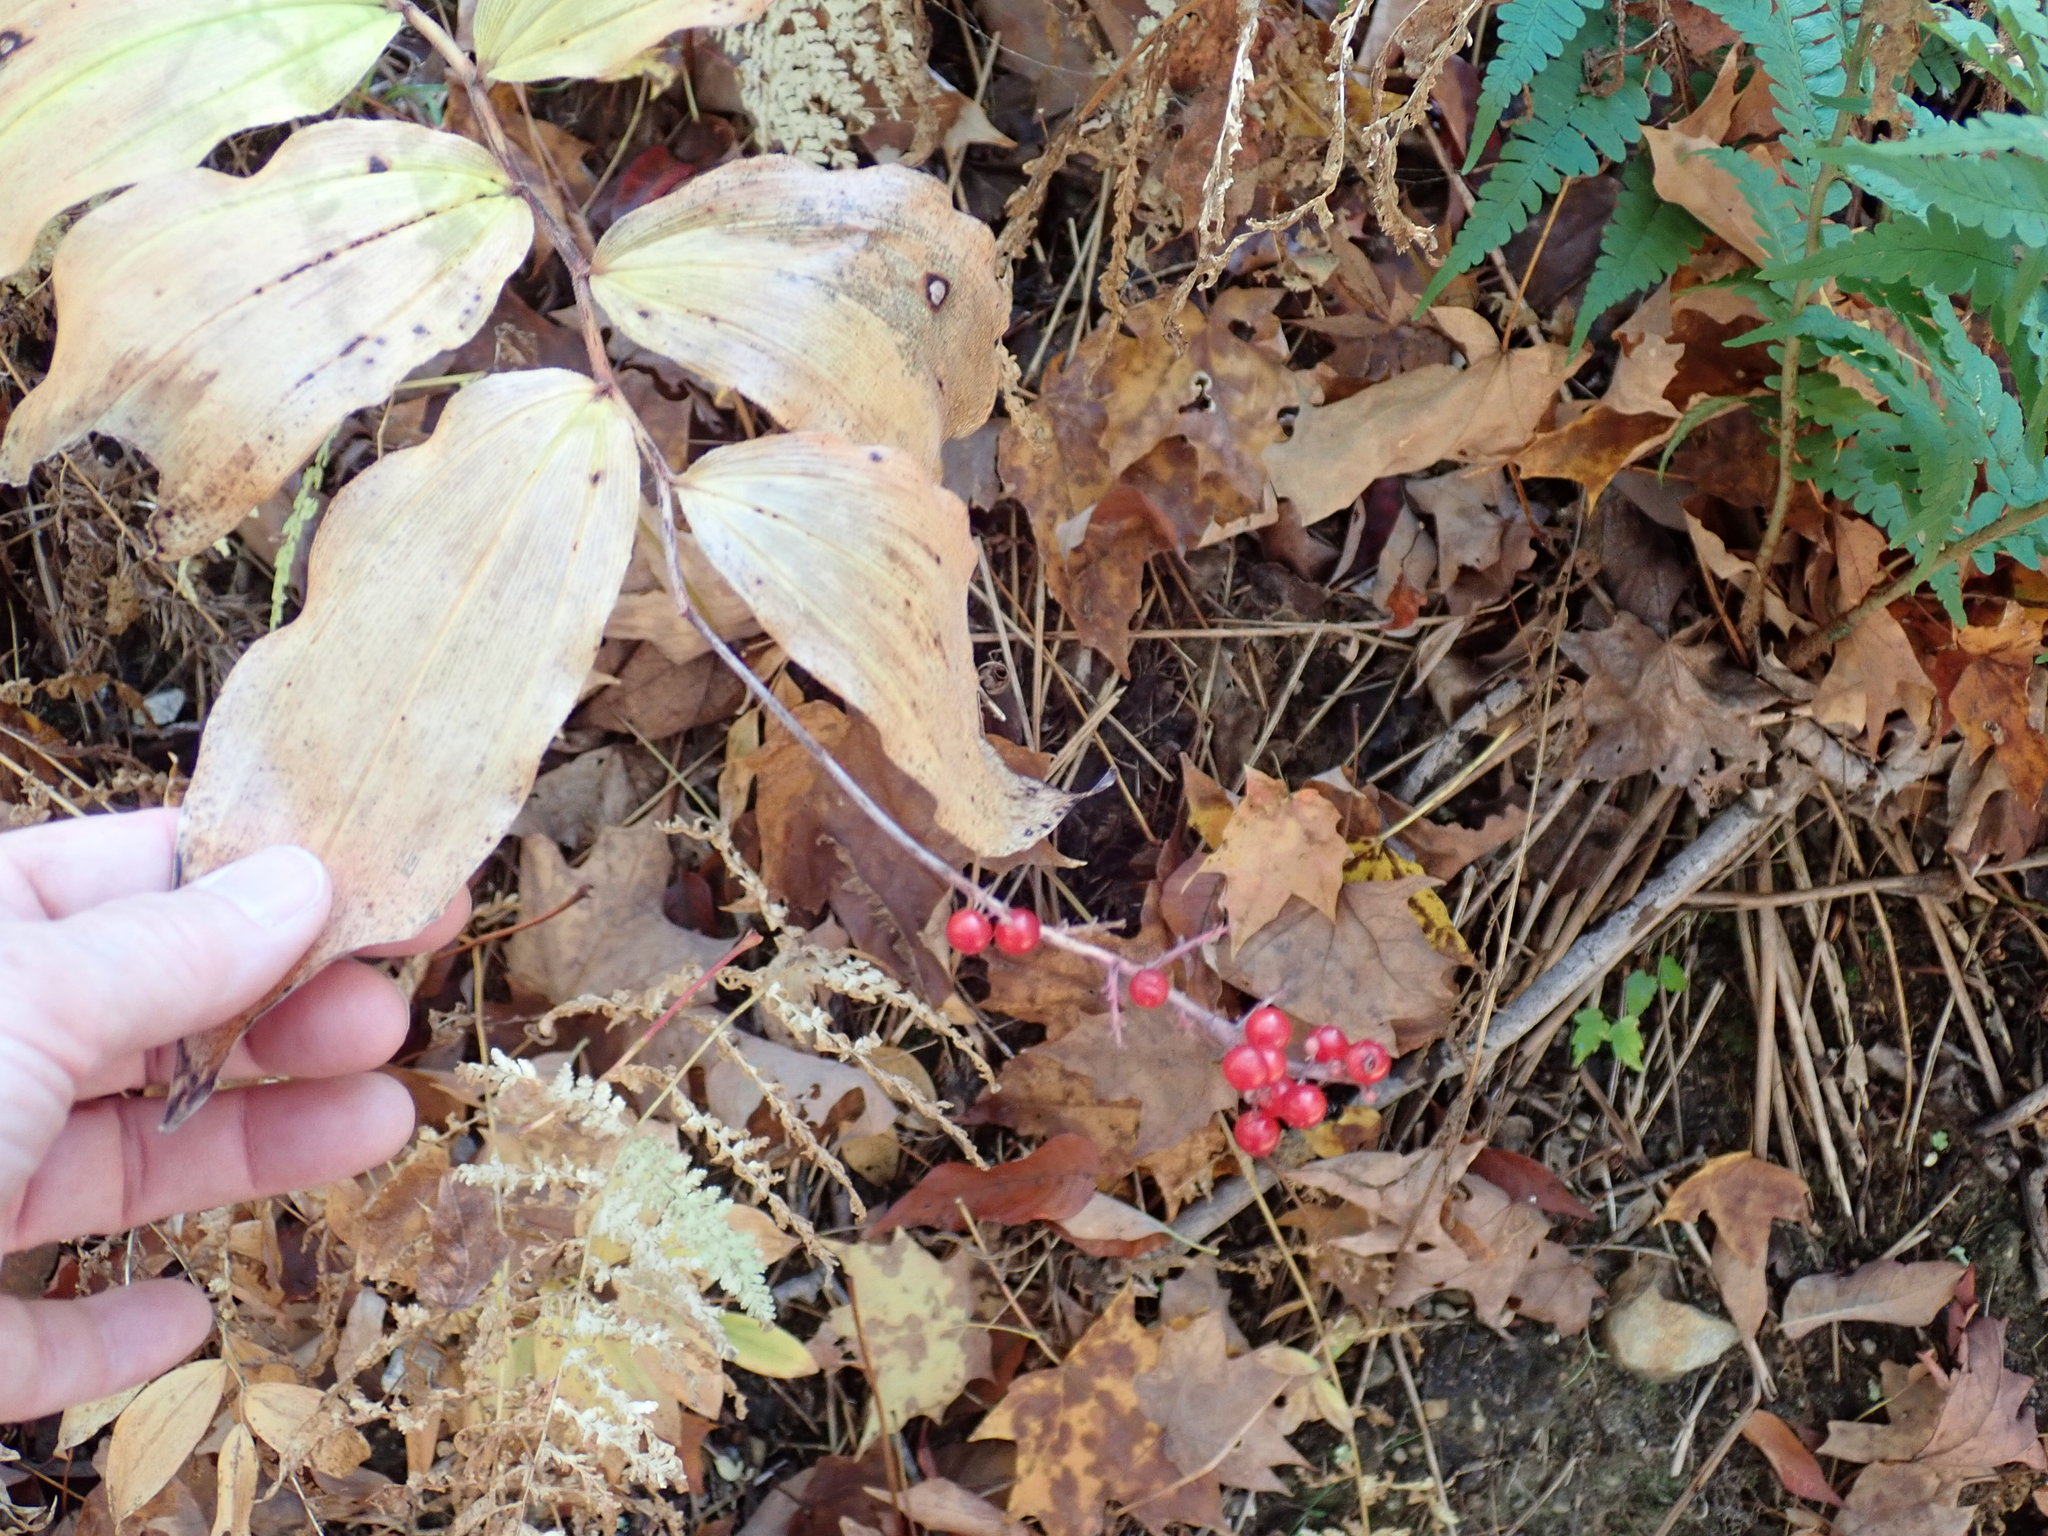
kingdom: Plantae
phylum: Tracheophyta
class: Liliopsida
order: Asparagales
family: Asparagaceae
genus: Maianthemum
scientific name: Maianthemum racemosum
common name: False spikenard
